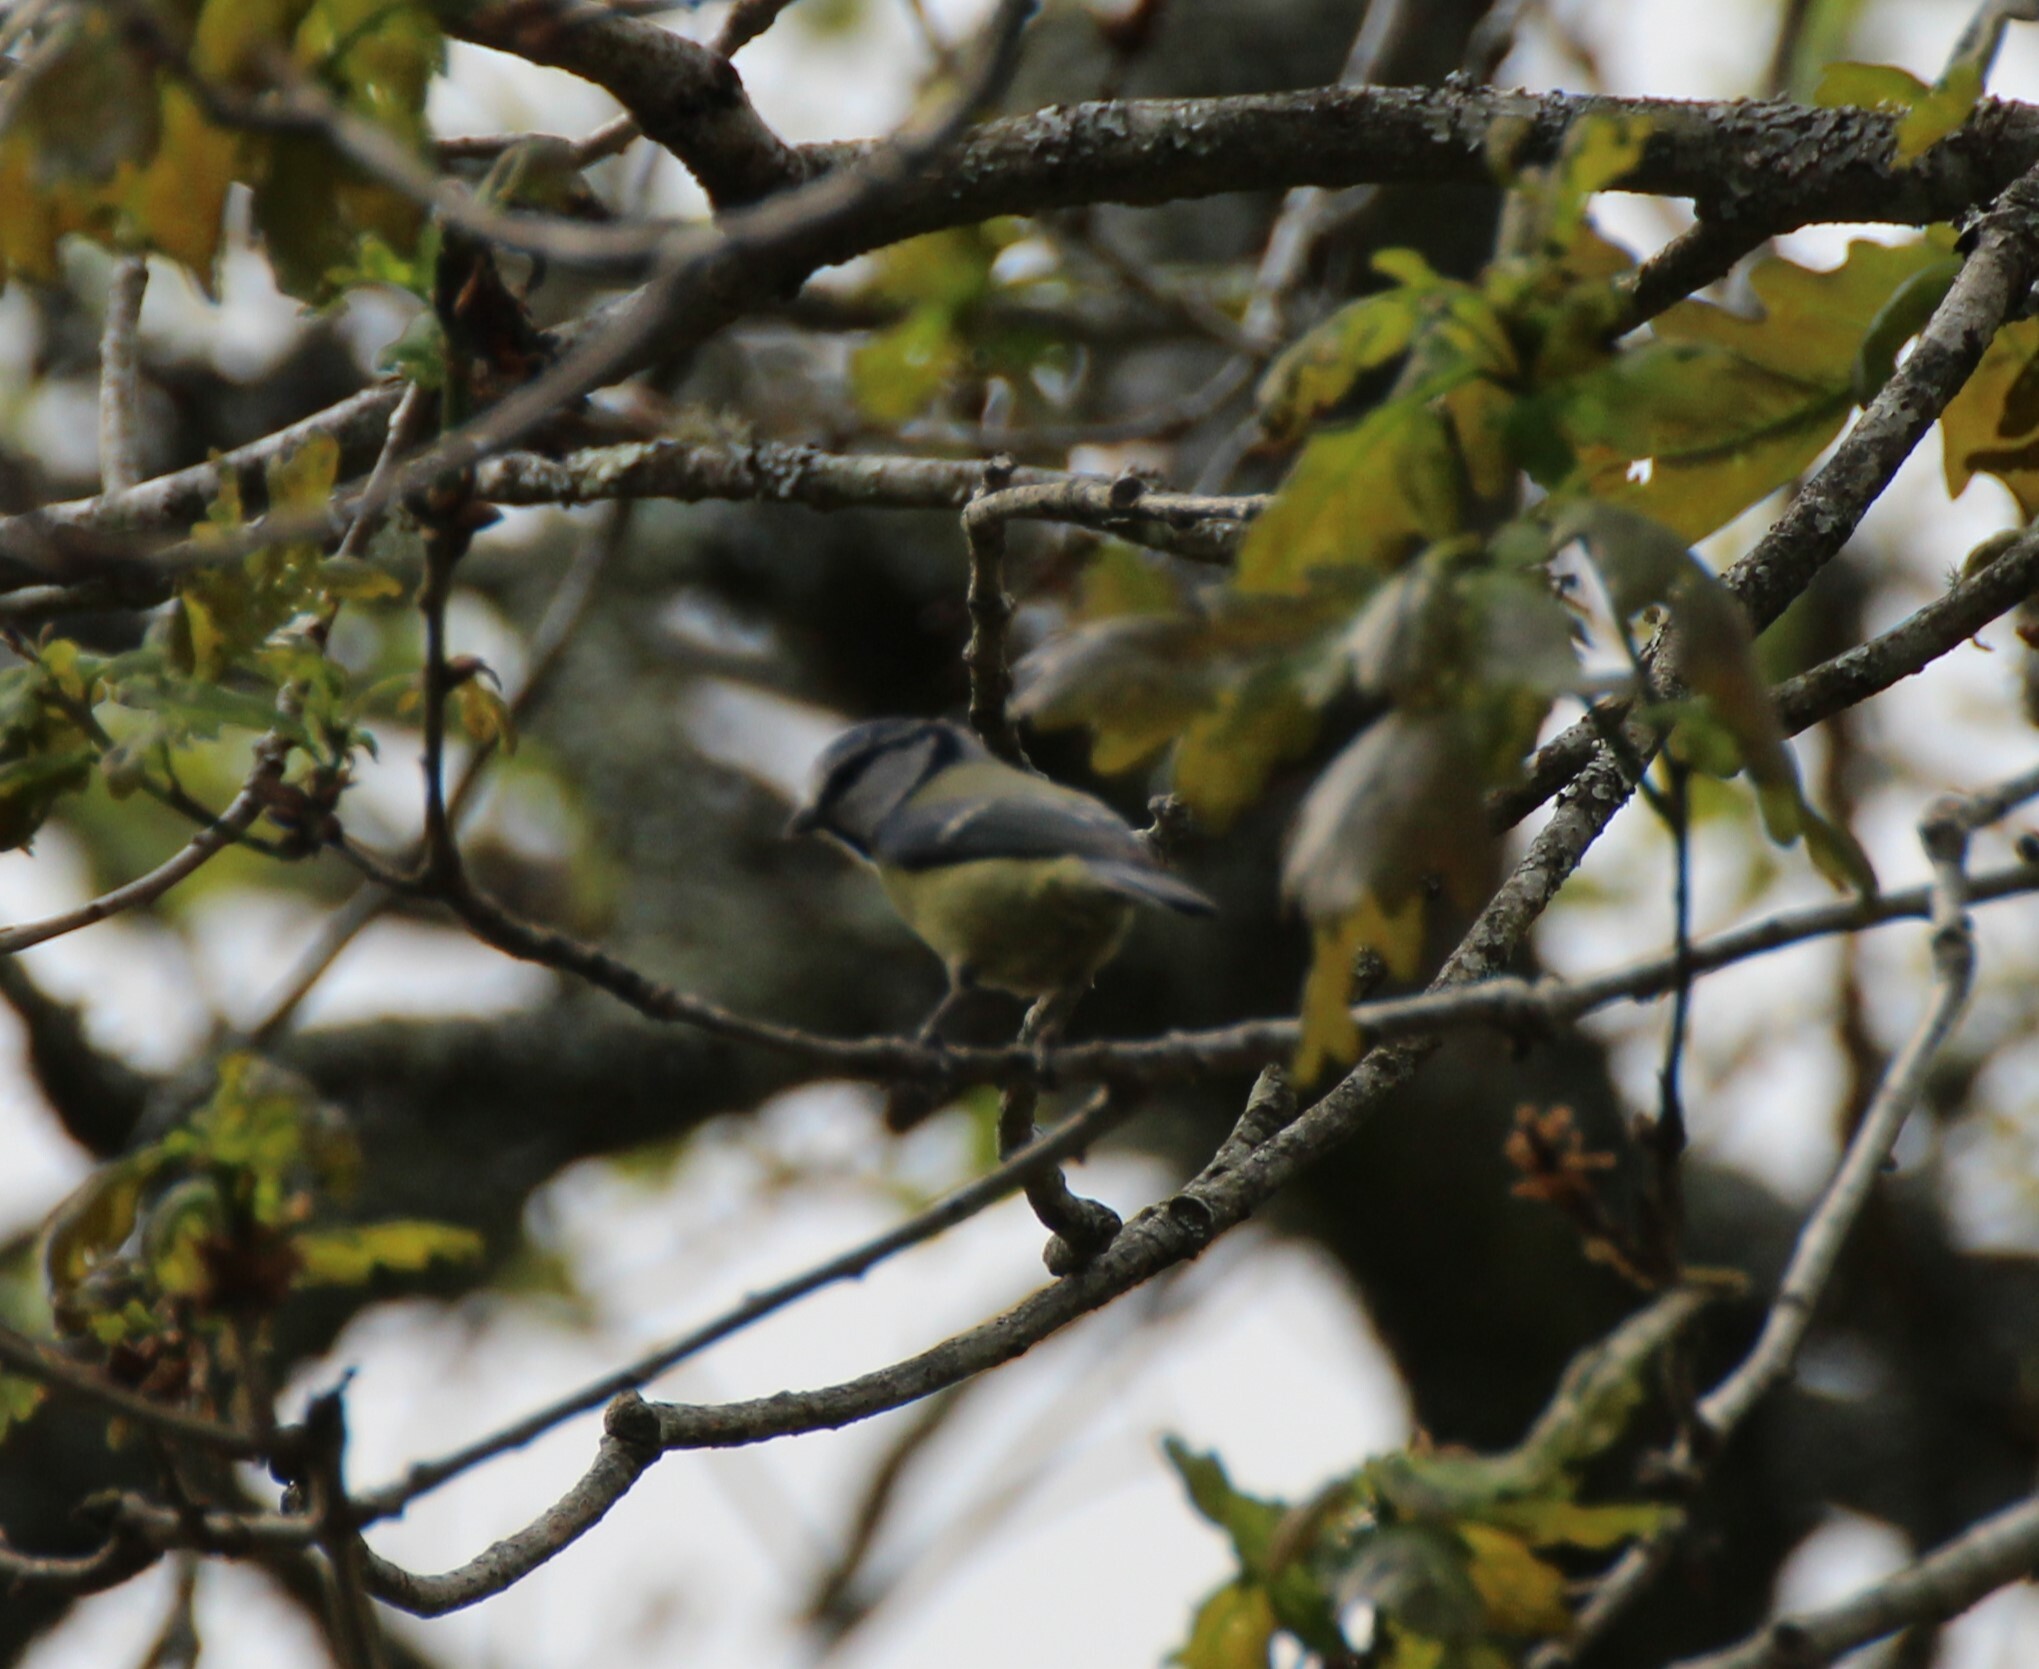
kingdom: Animalia
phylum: Chordata
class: Aves
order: Passeriformes
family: Paridae
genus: Cyanistes
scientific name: Cyanistes caeruleus
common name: Eurasian blue tit
